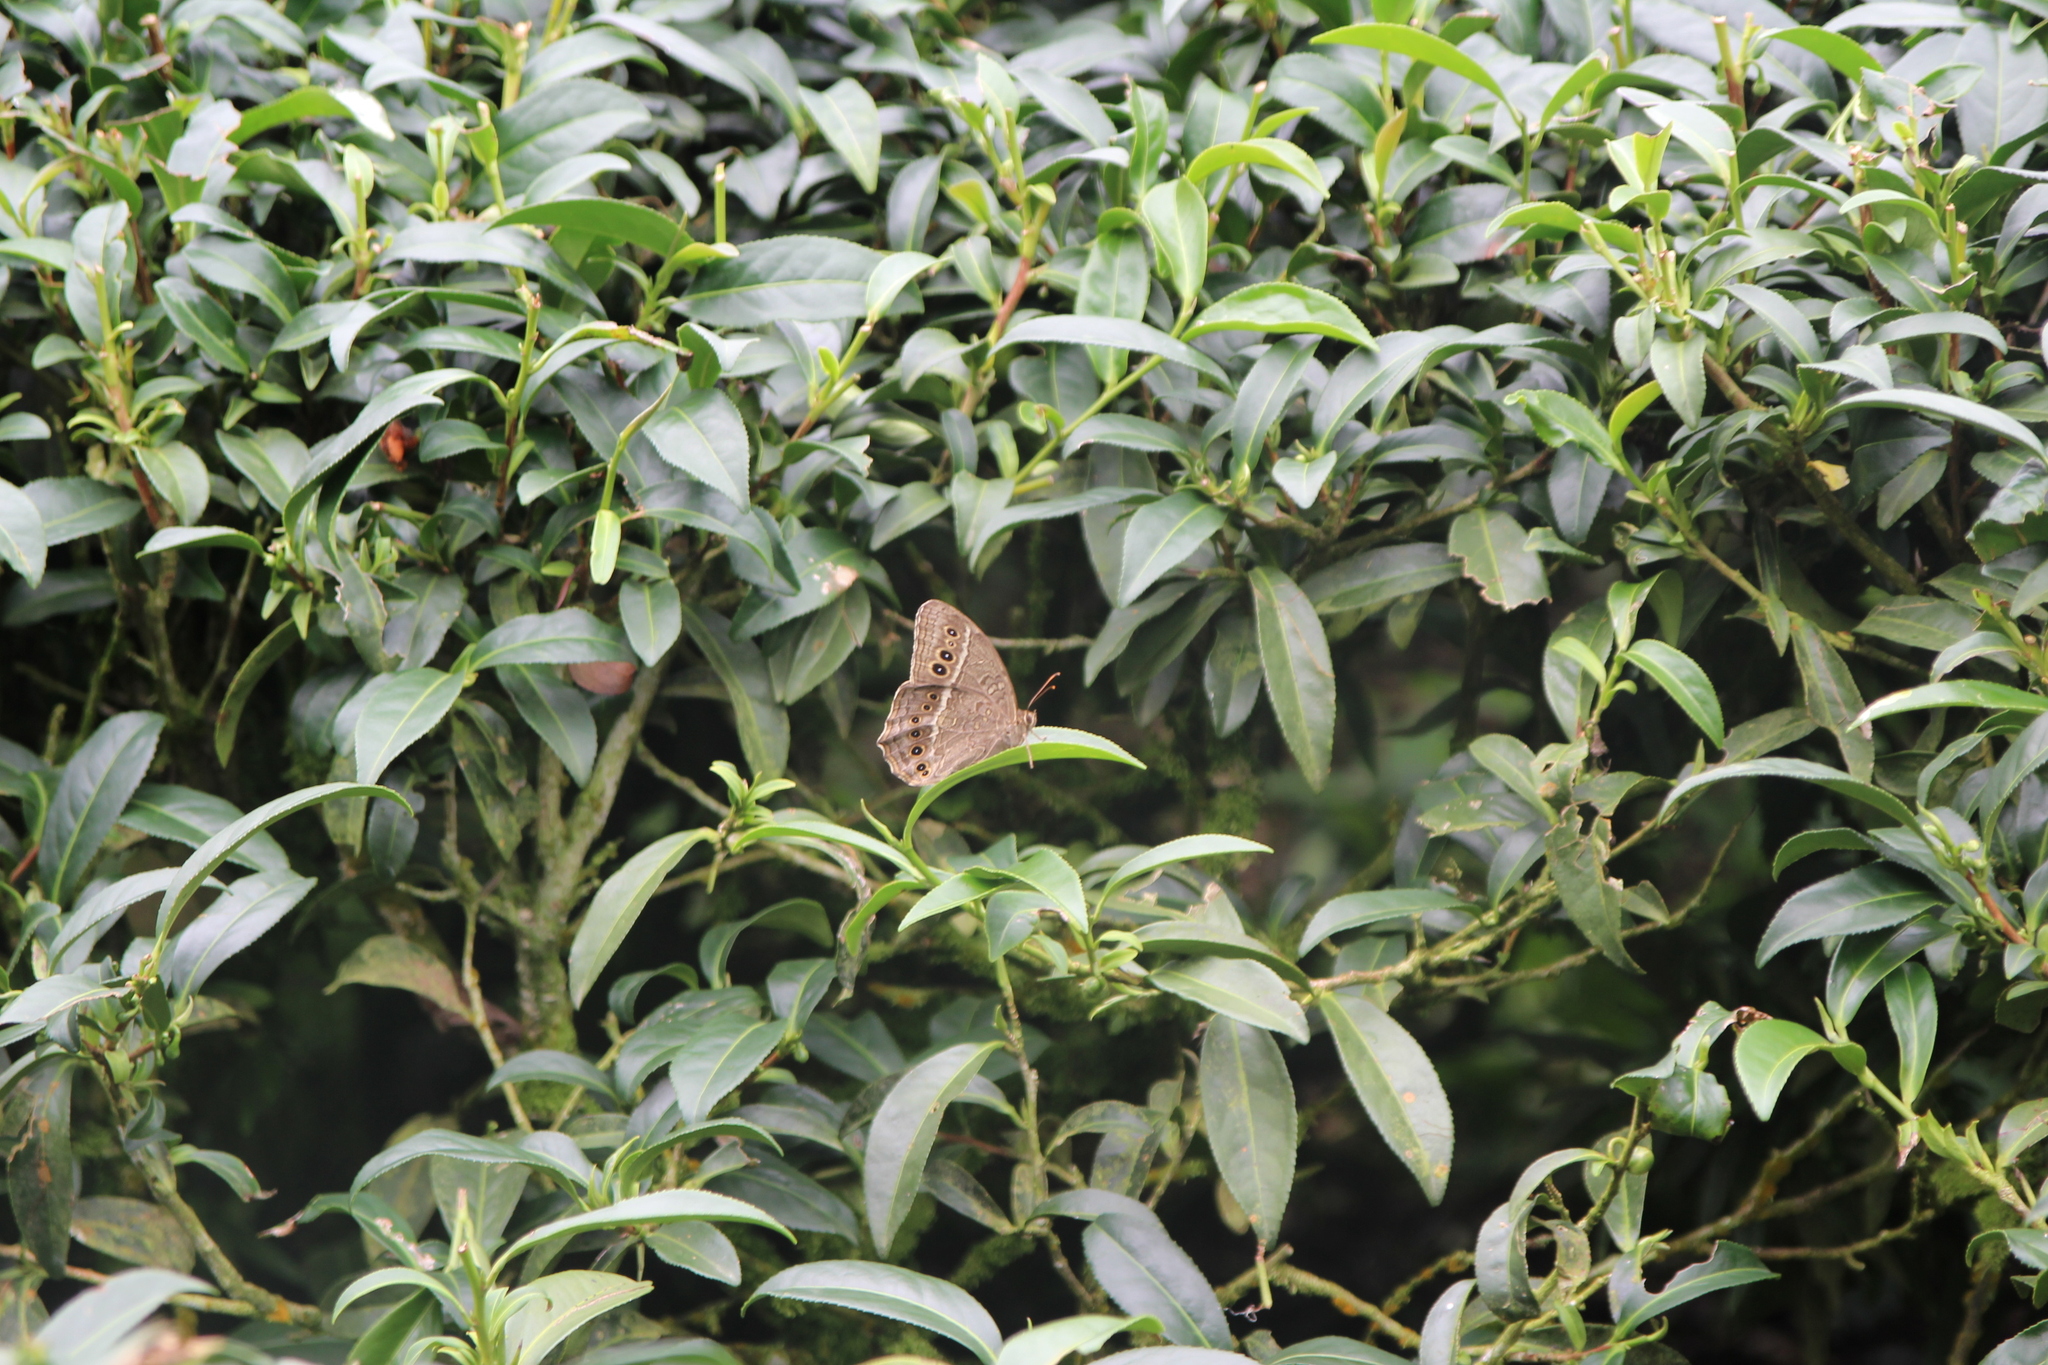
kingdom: Animalia
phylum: Arthropoda
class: Insecta
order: Lepidoptera
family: Nymphalidae
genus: Neope
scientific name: Neope muirheadii
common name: Black-spotted labyrinth
